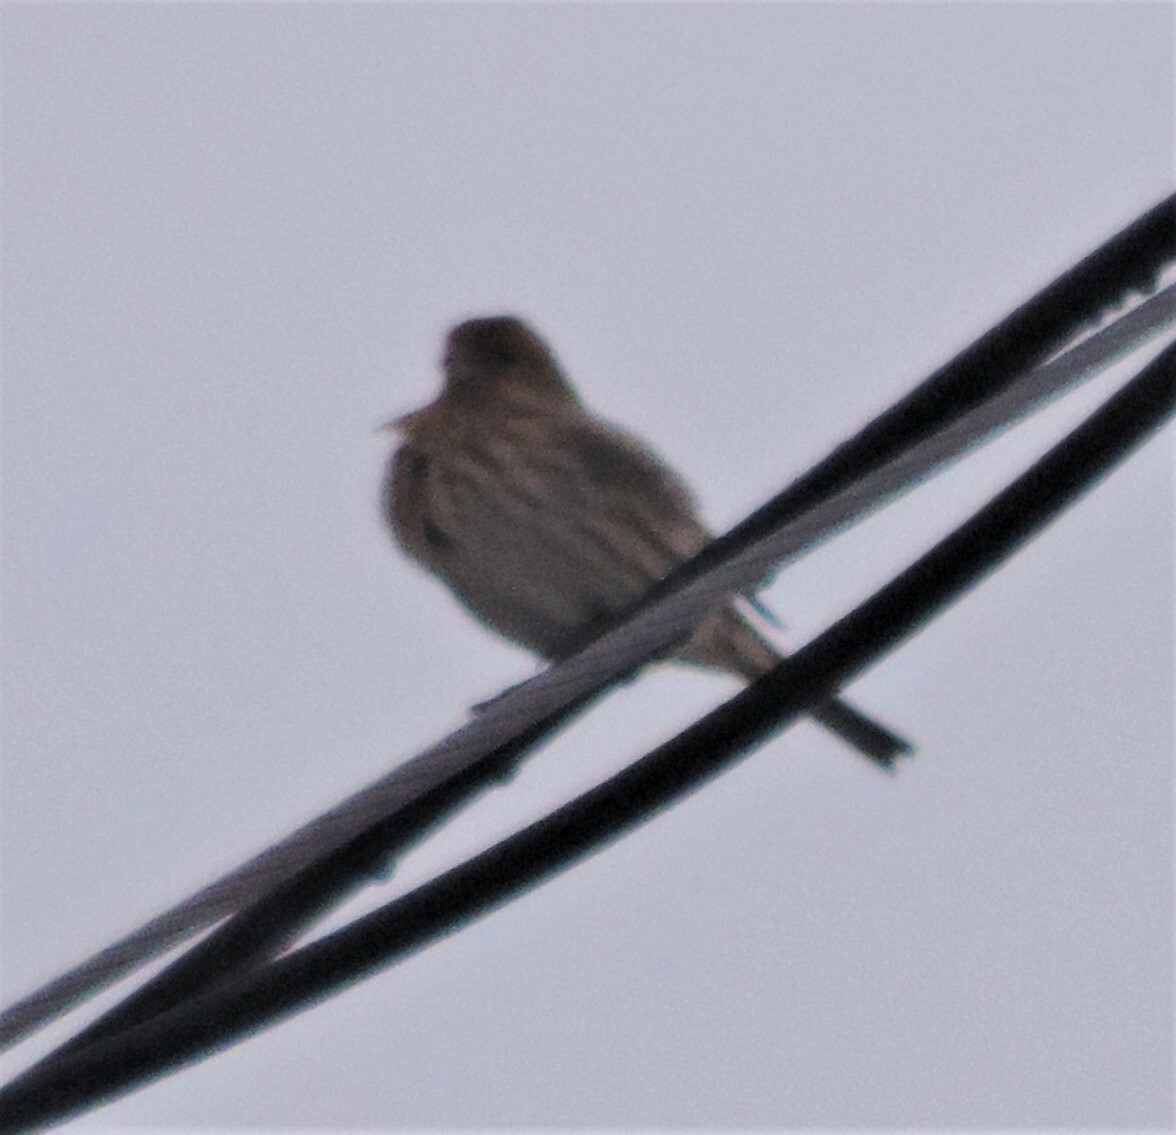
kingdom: Animalia
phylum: Chordata
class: Aves
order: Passeriformes
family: Fringillidae
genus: Haemorhous
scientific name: Haemorhous mexicanus
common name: House finch
